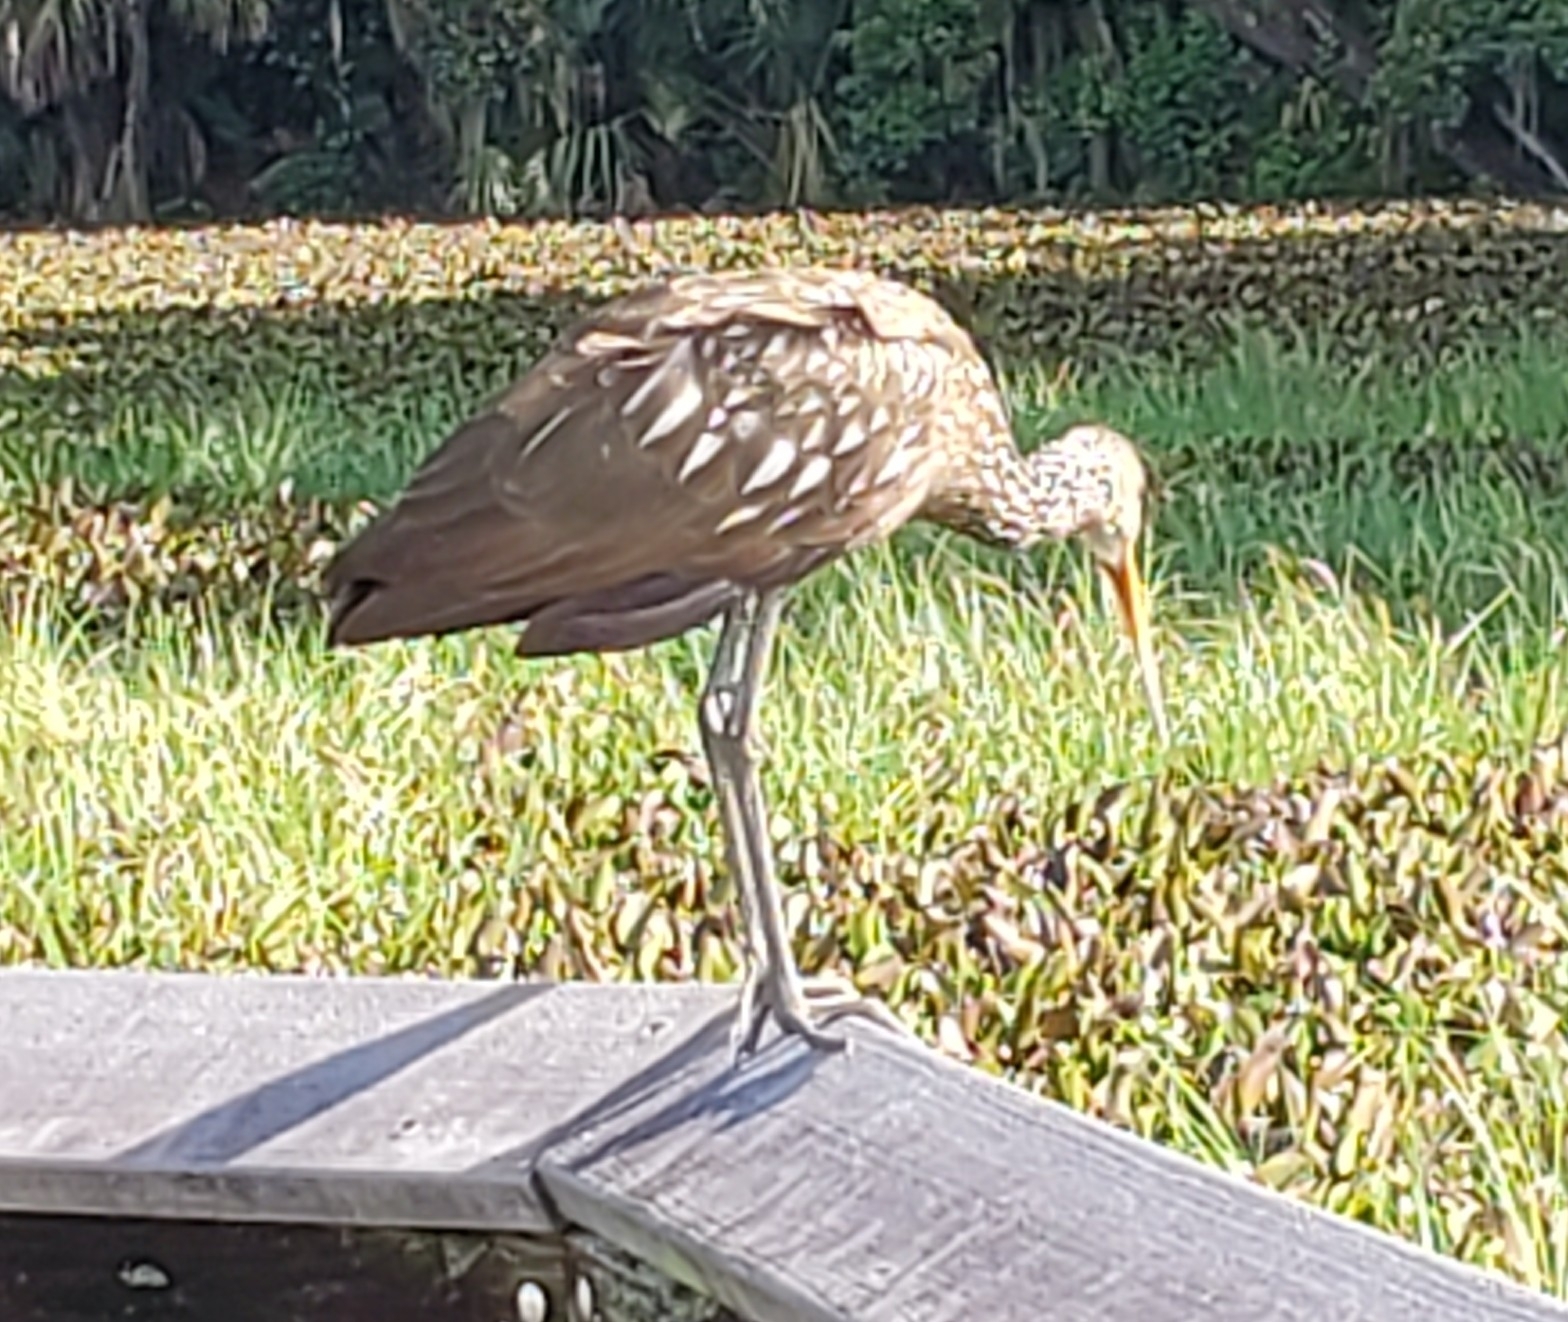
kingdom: Animalia
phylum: Chordata
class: Aves
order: Gruiformes
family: Aramidae
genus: Aramus
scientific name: Aramus guarauna
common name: Limpkin
